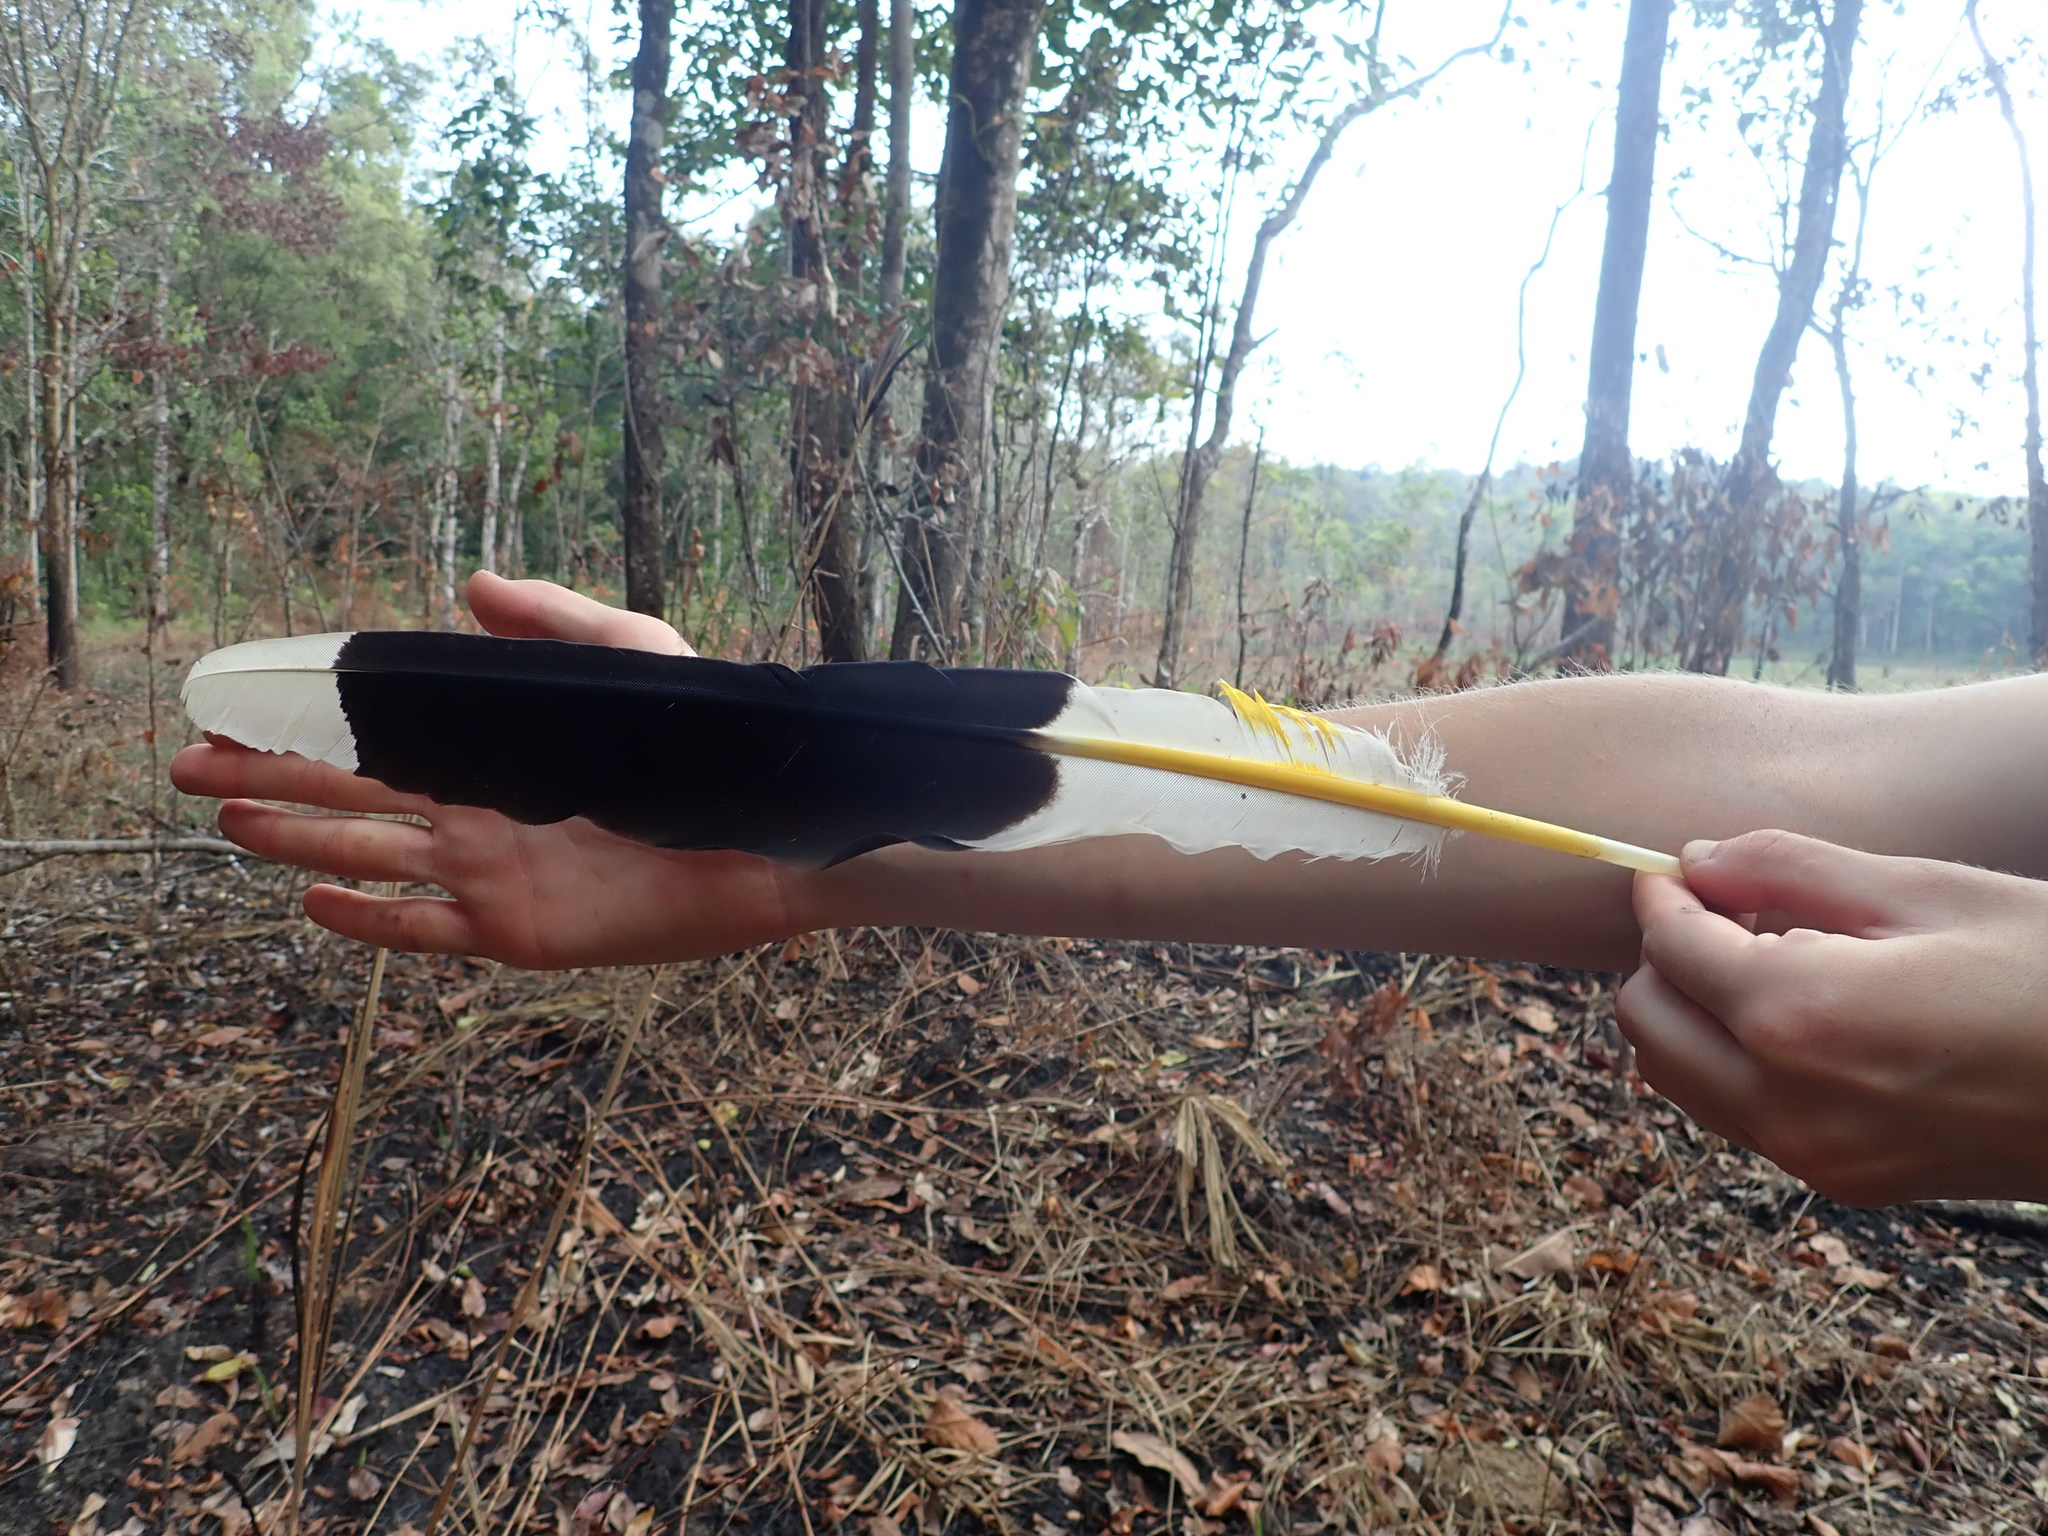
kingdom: Animalia
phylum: Chordata
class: Aves
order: Bucerotiformes
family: Bucerotidae
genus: Buceros
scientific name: Buceros bicornis
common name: Great hornbill
